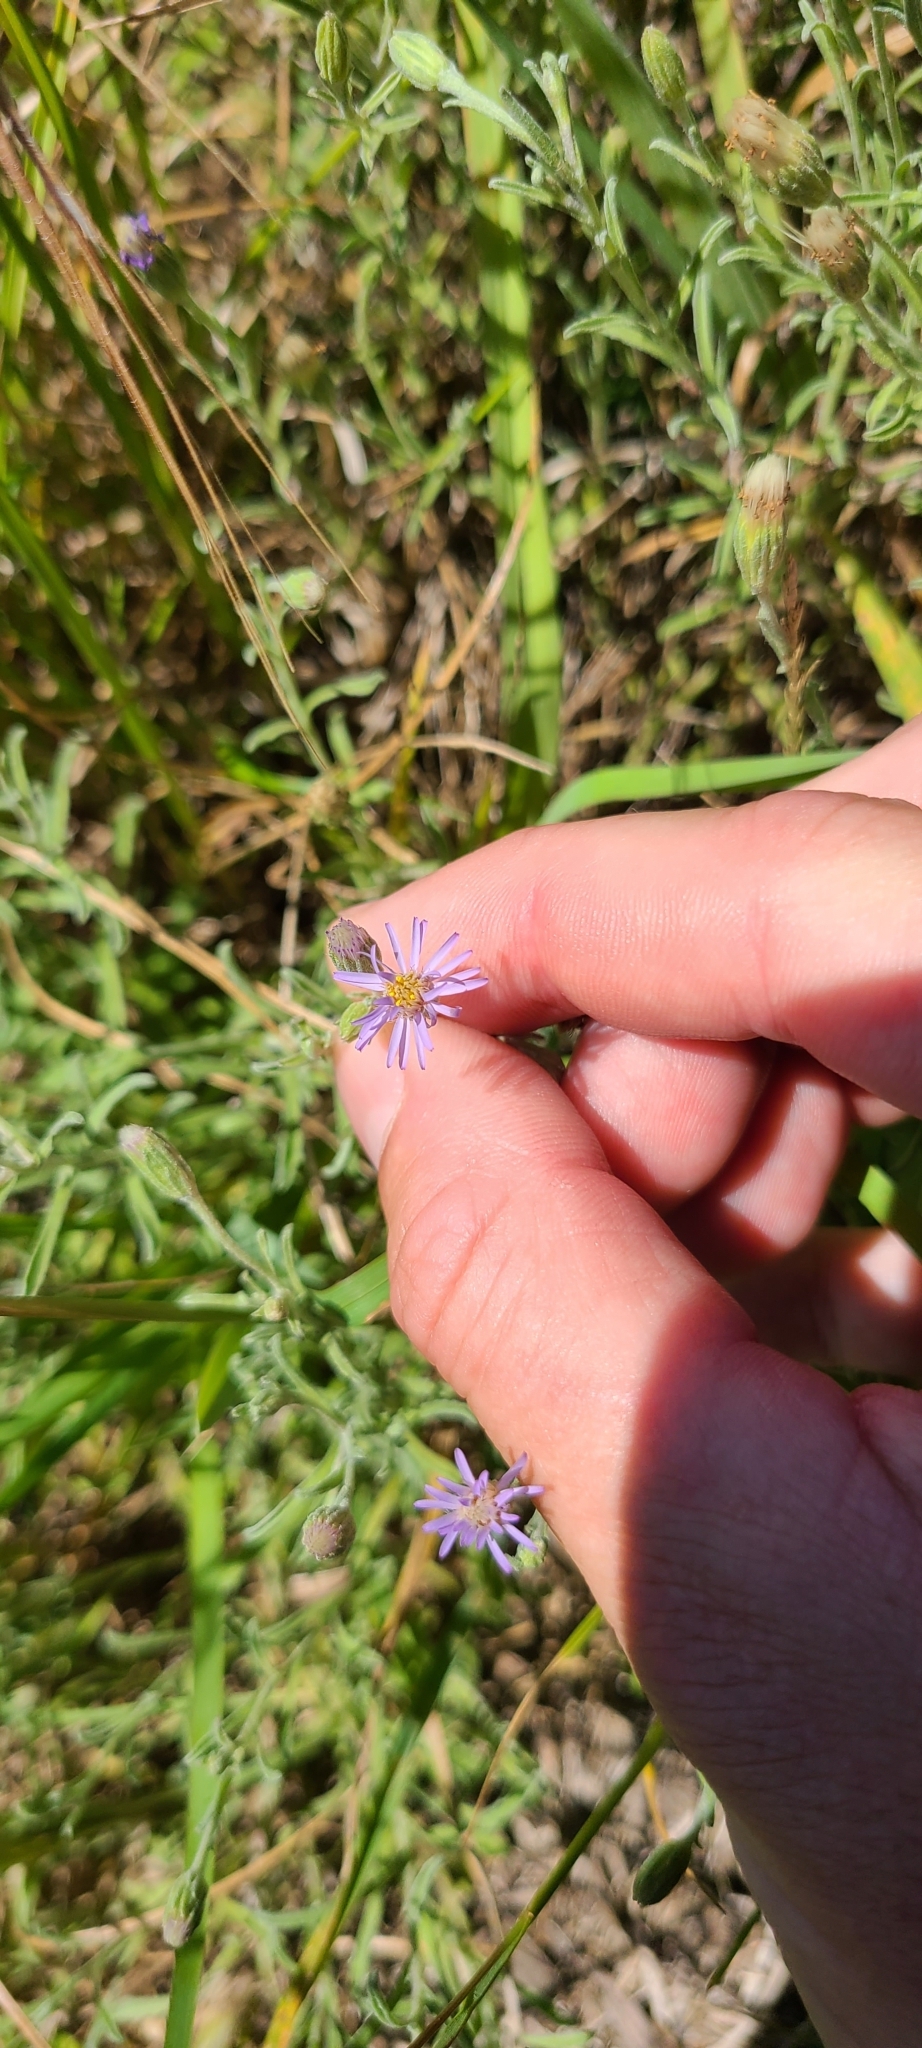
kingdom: Plantae
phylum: Tracheophyta
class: Magnoliopsida
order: Asterales
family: Asteraceae
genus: Vittadinia
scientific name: Vittadinia gracilis
